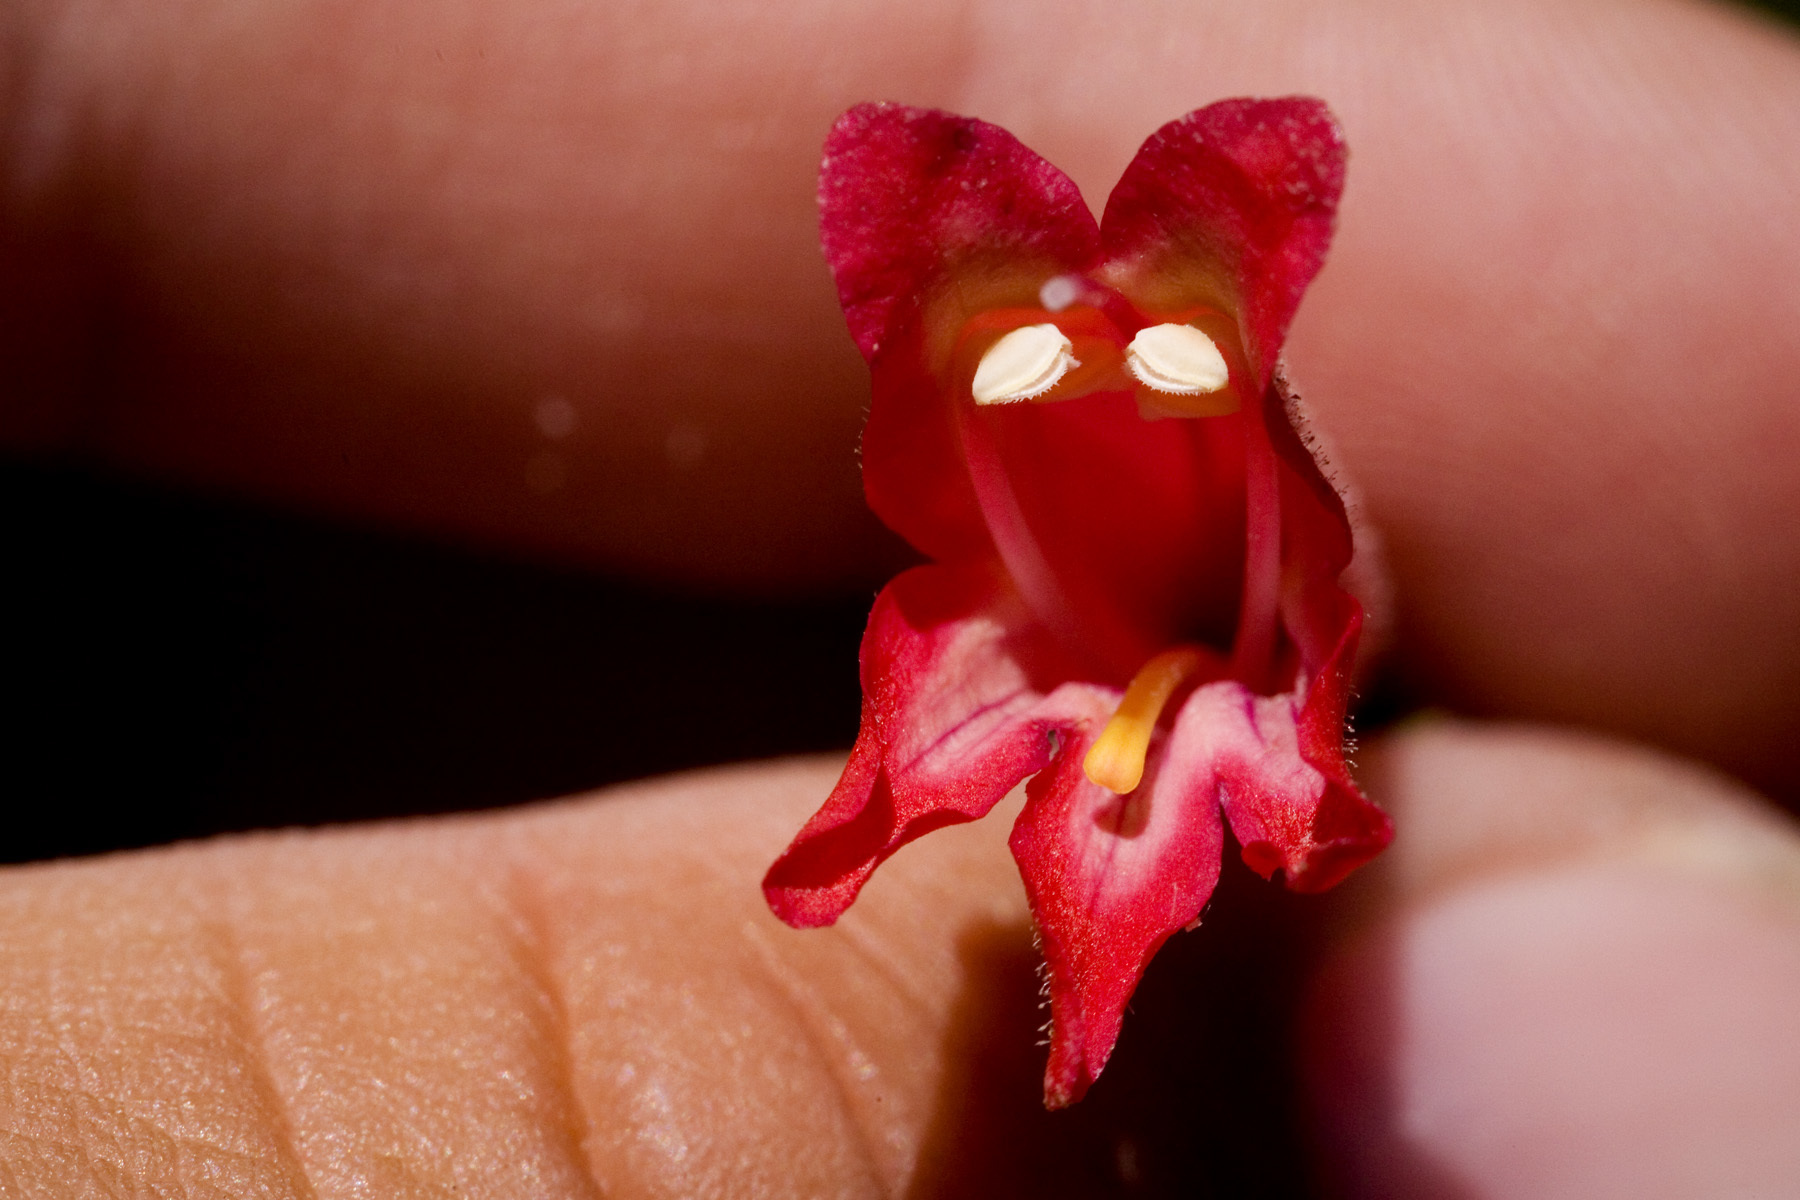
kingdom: Plantae
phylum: Tracheophyta
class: Magnoliopsida
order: Lamiales
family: Plantaginaceae
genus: Penstemon
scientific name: Penstemon lanceolatus
